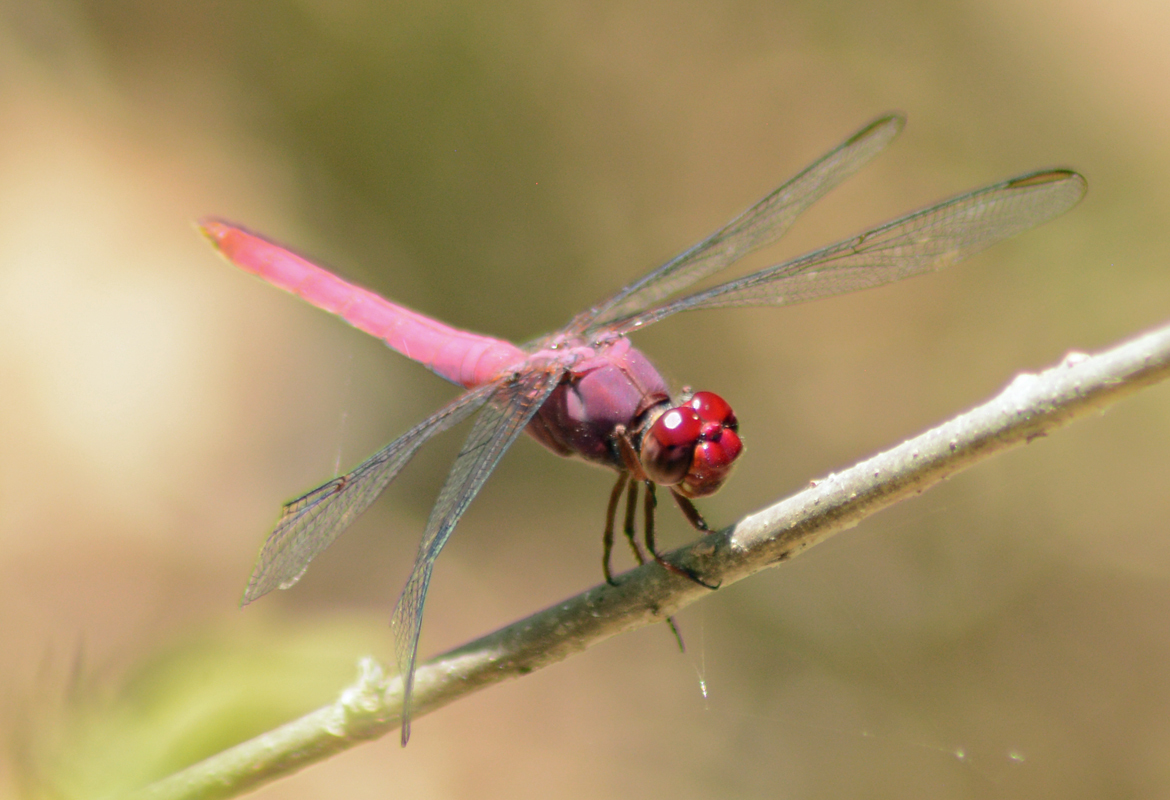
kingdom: Animalia
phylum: Arthropoda
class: Insecta
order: Odonata
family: Libellulidae
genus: Orthemis
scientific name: Orthemis discolor
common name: Carmine skimmer
